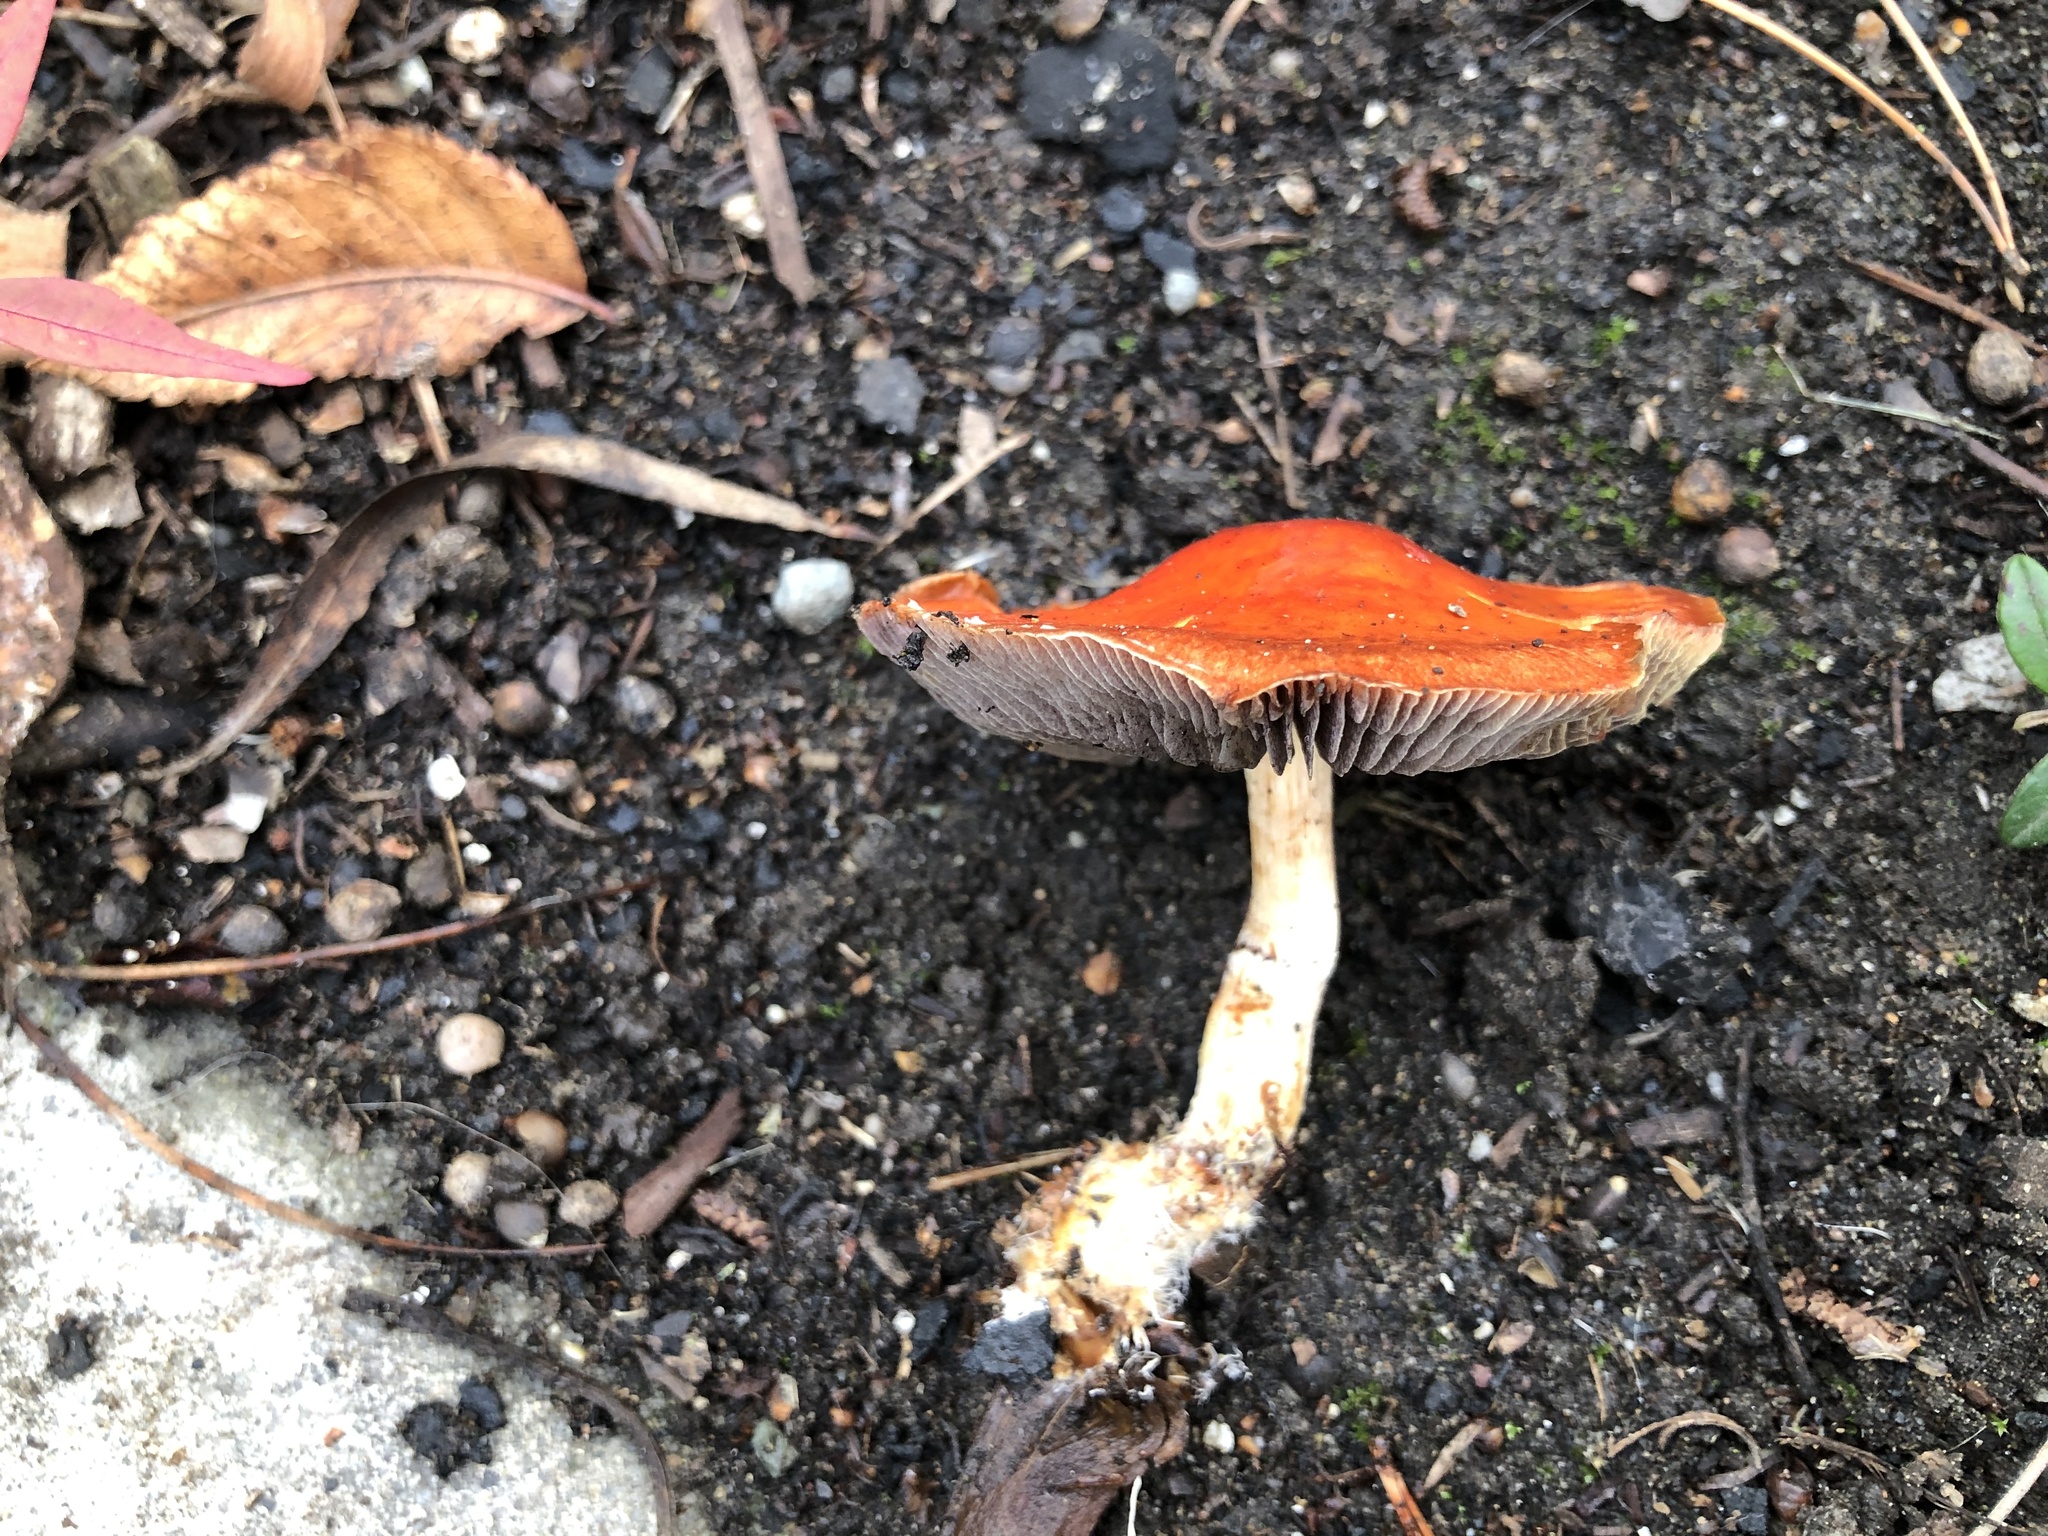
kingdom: Fungi
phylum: Basidiomycota
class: Agaricomycetes
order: Agaricales
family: Strophariaceae
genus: Leratiomyces
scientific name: Leratiomyces ceres
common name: Redlead roundhead
